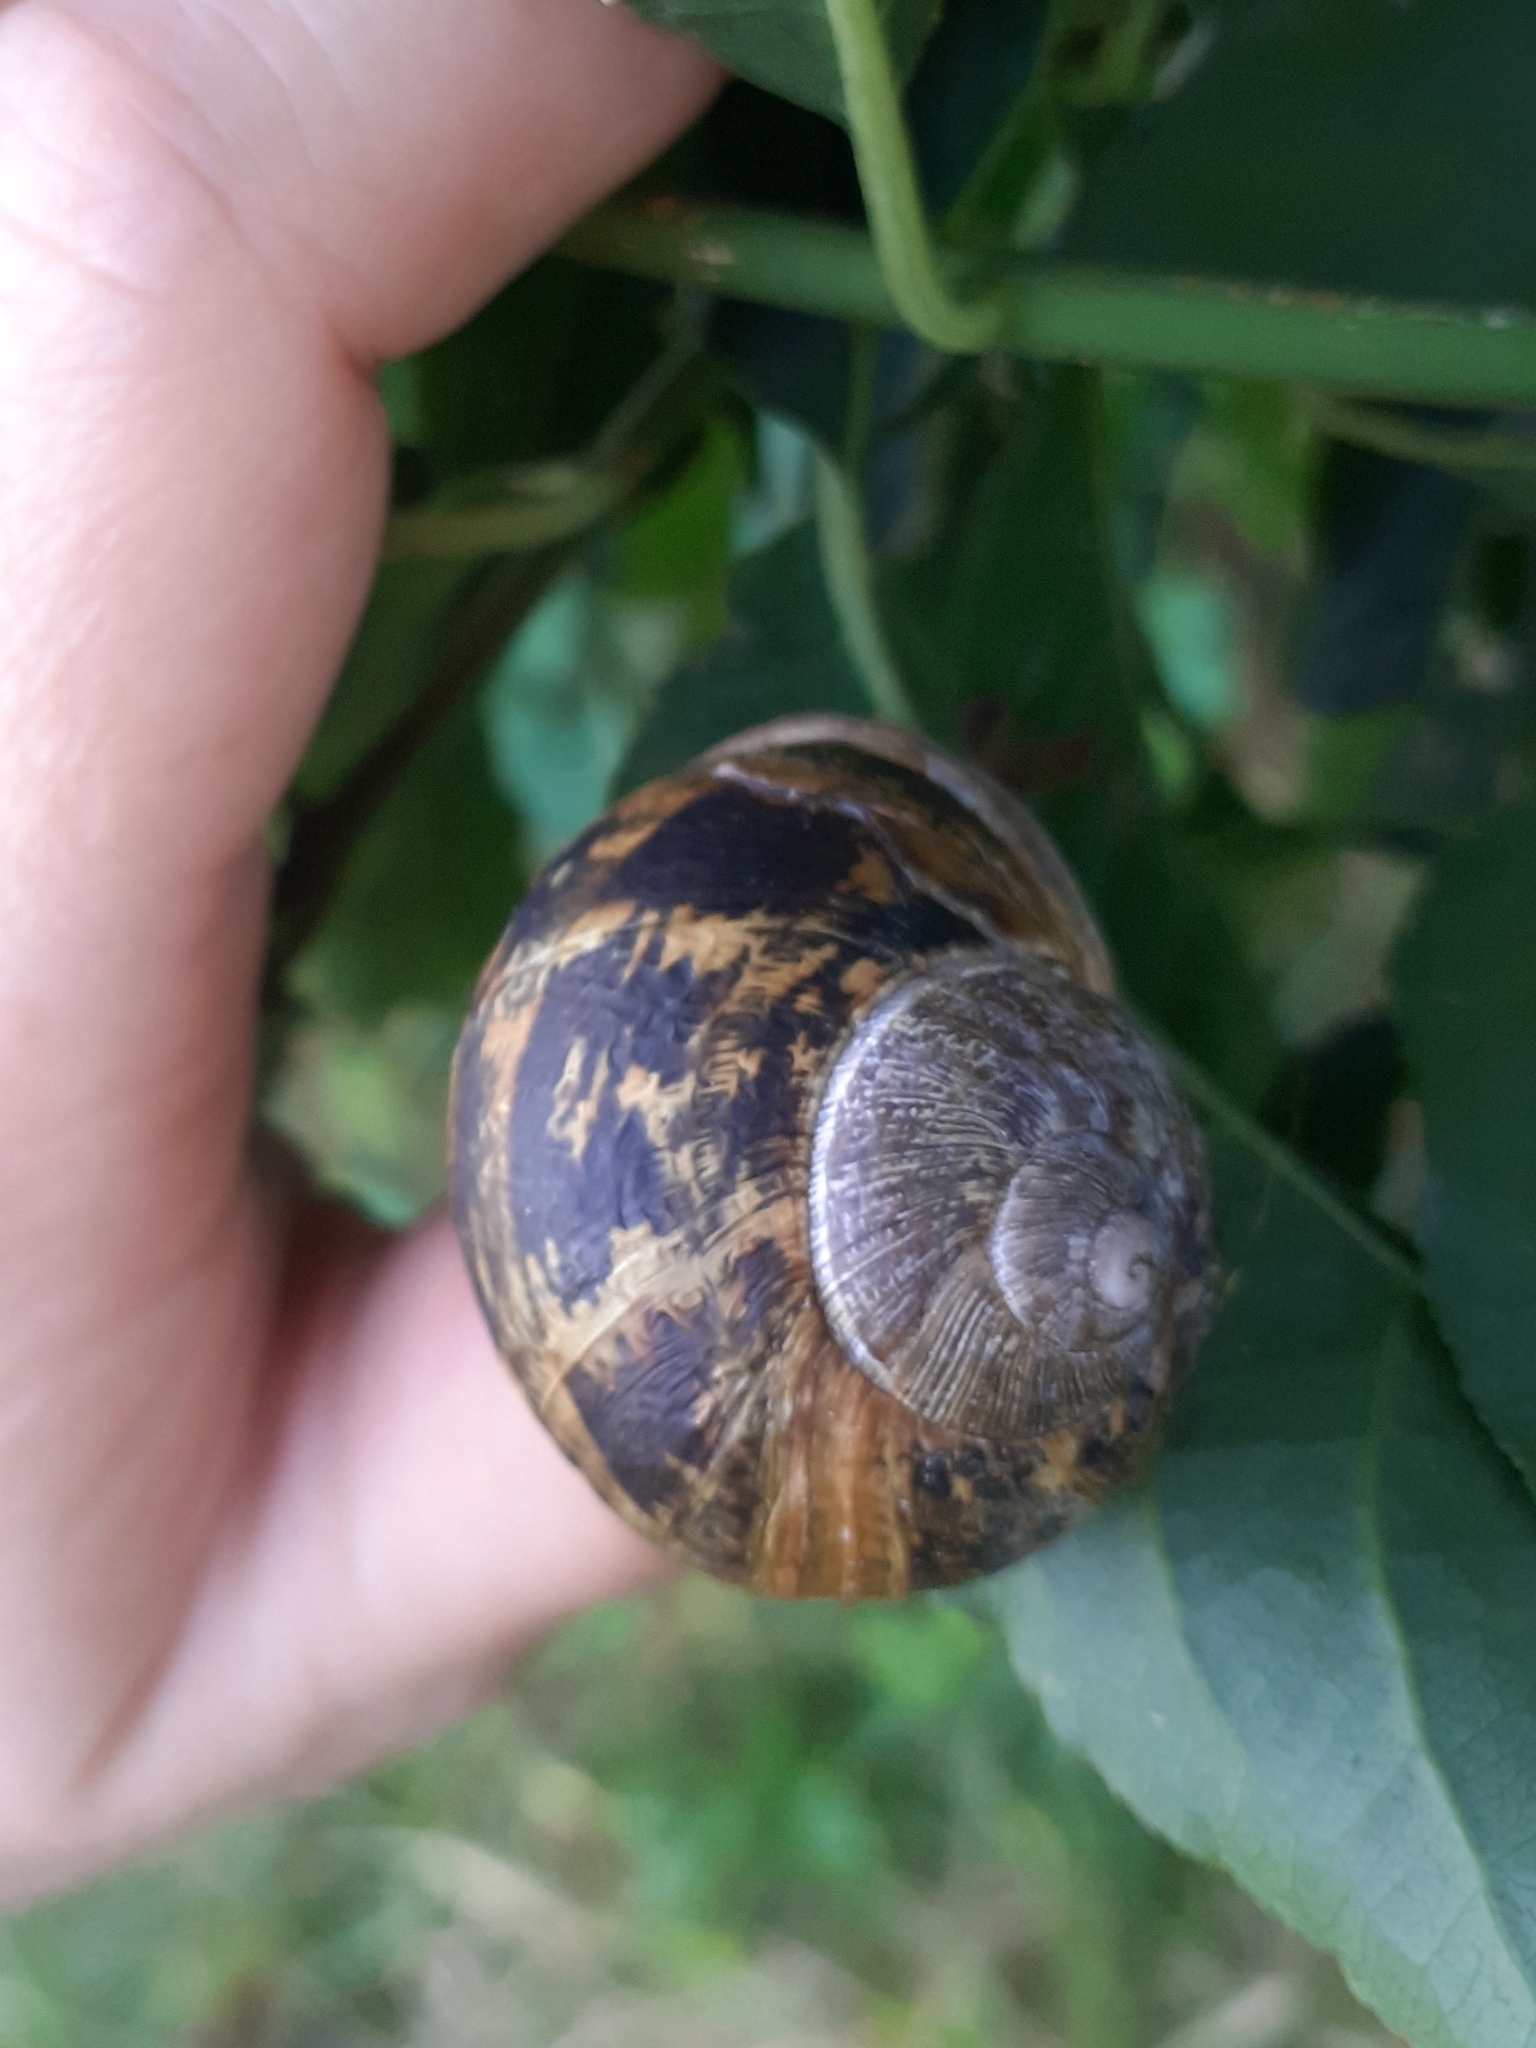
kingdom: Animalia
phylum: Mollusca
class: Gastropoda
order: Stylommatophora
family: Helicidae
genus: Cornu
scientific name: Cornu aspersum
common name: Brown garden snail
